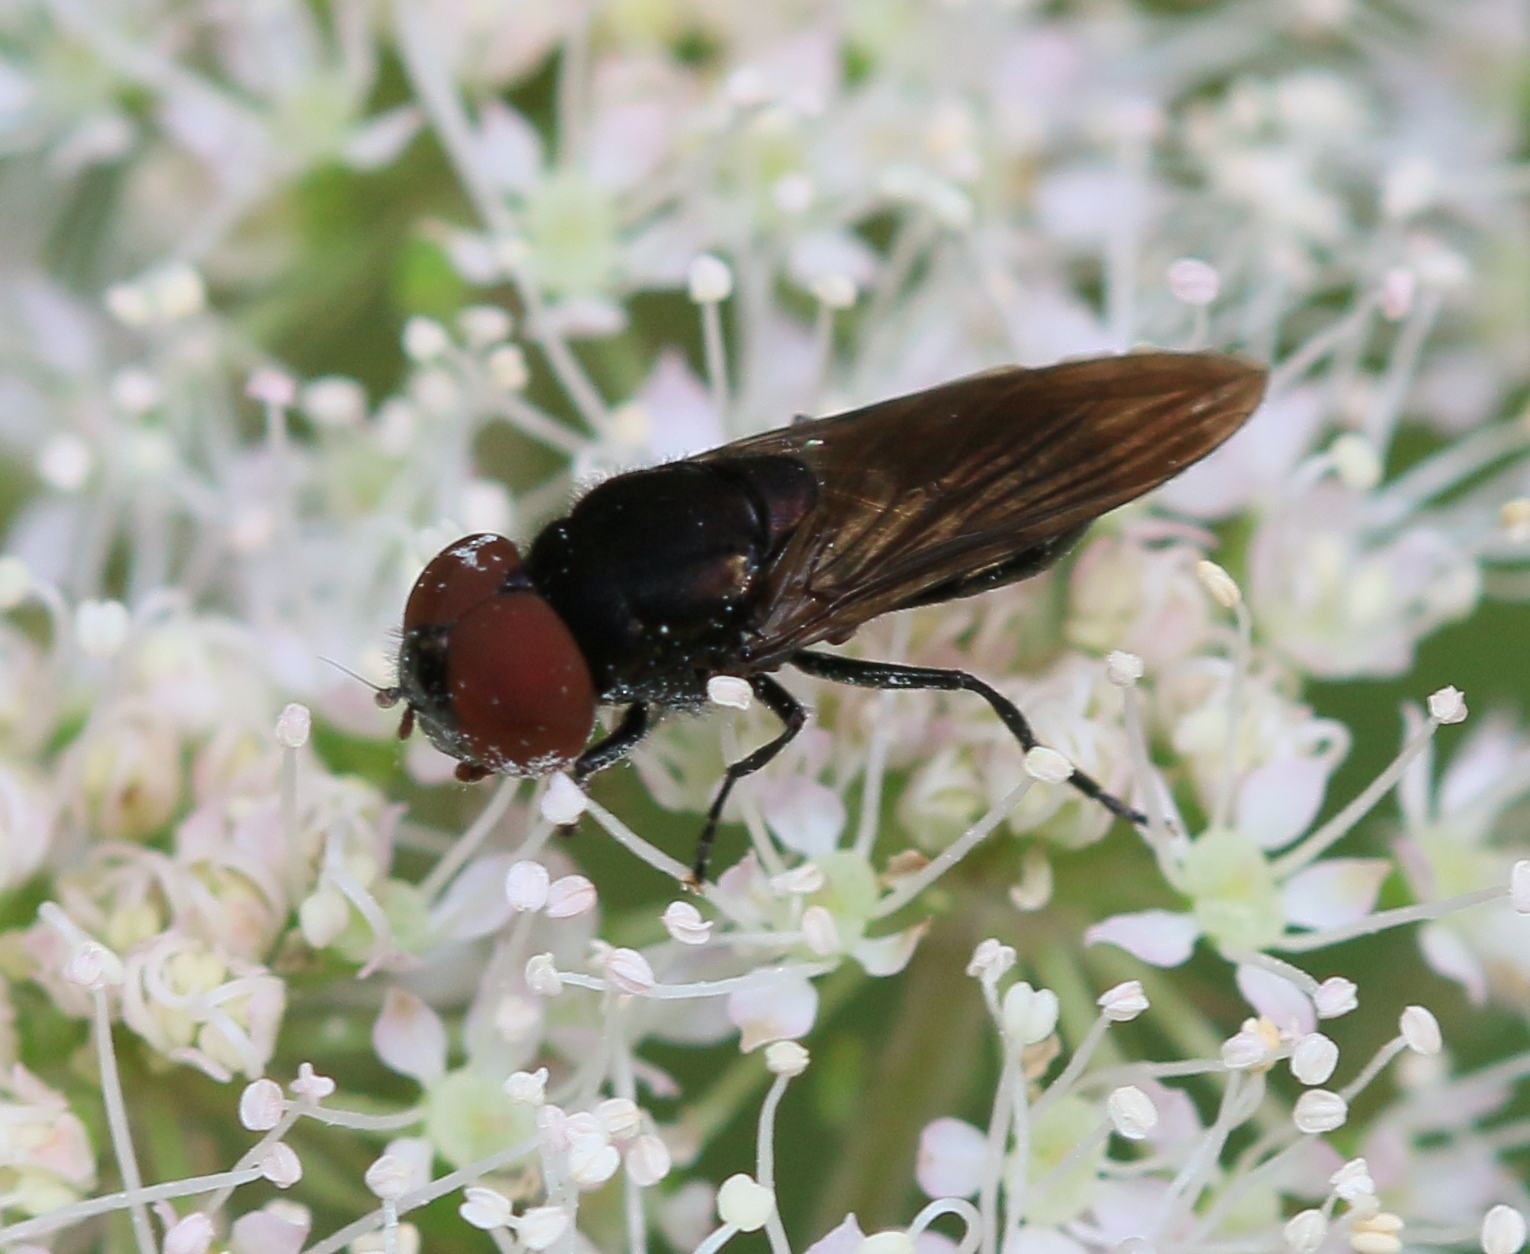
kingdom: Animalia
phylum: Arthropoda
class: Insecta
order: Diptera
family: Syrphidae
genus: Chrysogaster
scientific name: Chrysogaster solstitialis
